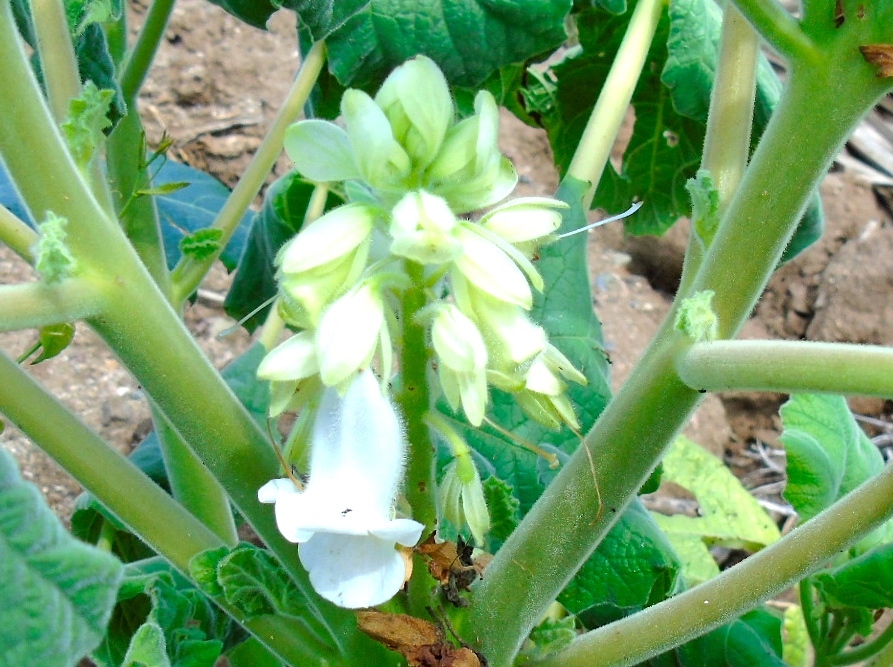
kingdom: Plantae
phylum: Tracheophyta
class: Magnoliopsida
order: Lamiales
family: Martyniaceae
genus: Martynia
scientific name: Martynia annua
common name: Tiger's-claw
